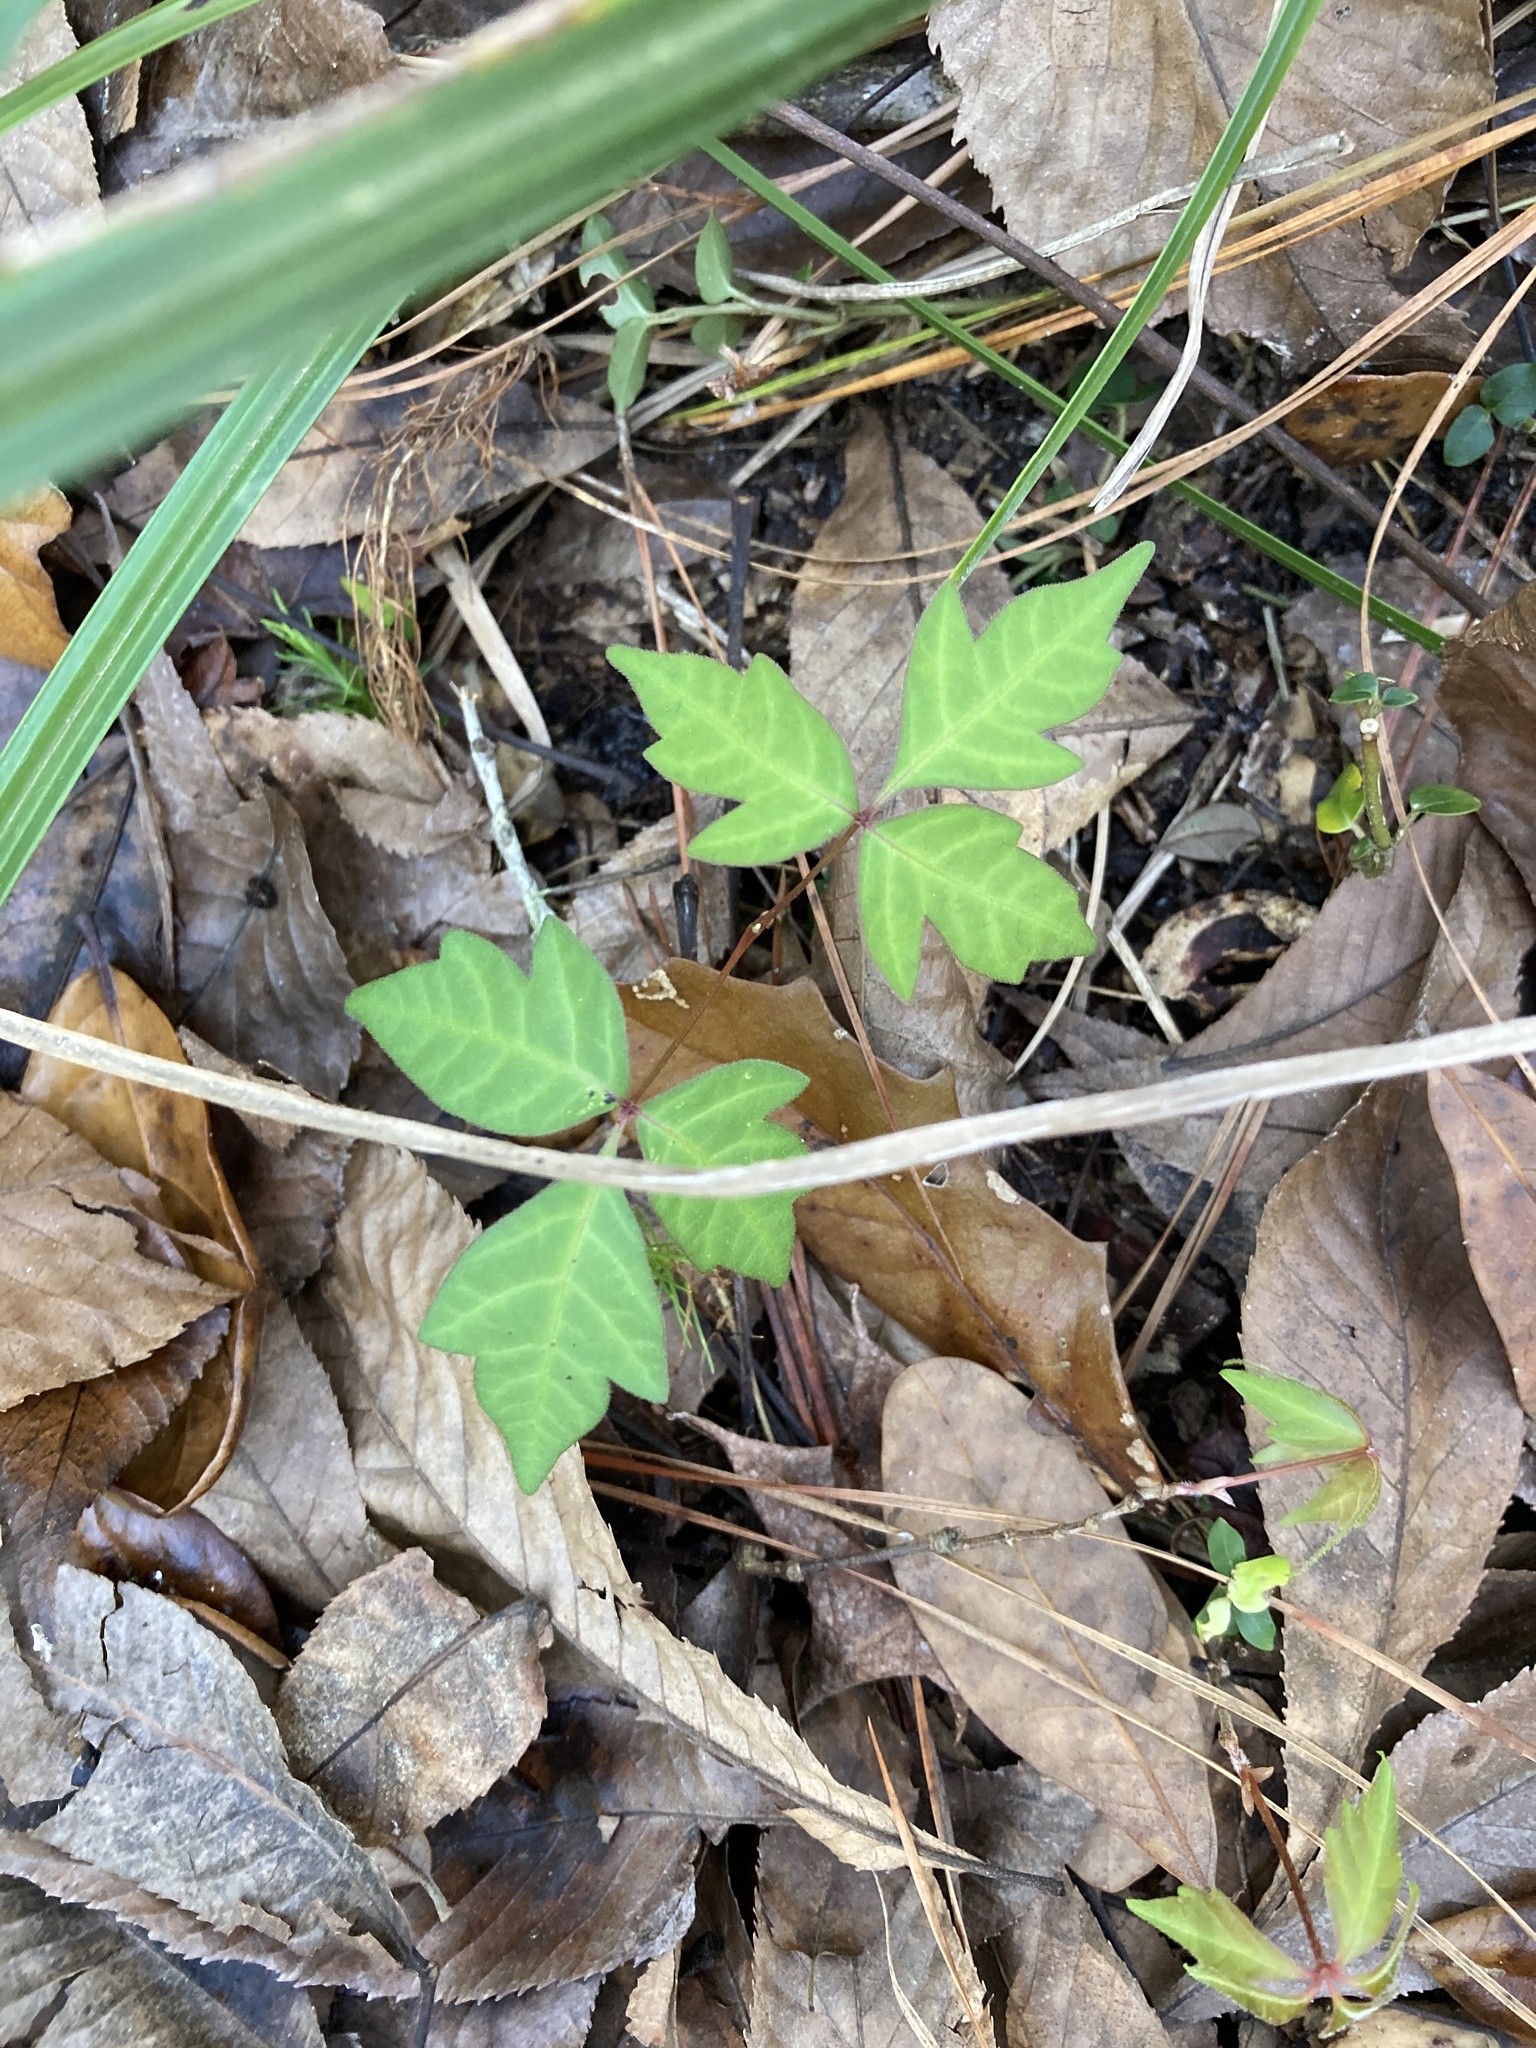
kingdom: Plantae
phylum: Tracheophyta
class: Magnoliopsida
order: Sapindales
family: Anacardiaceae
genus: Toxicodendron
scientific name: Toxicodendron radicans
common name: Poison ivy
